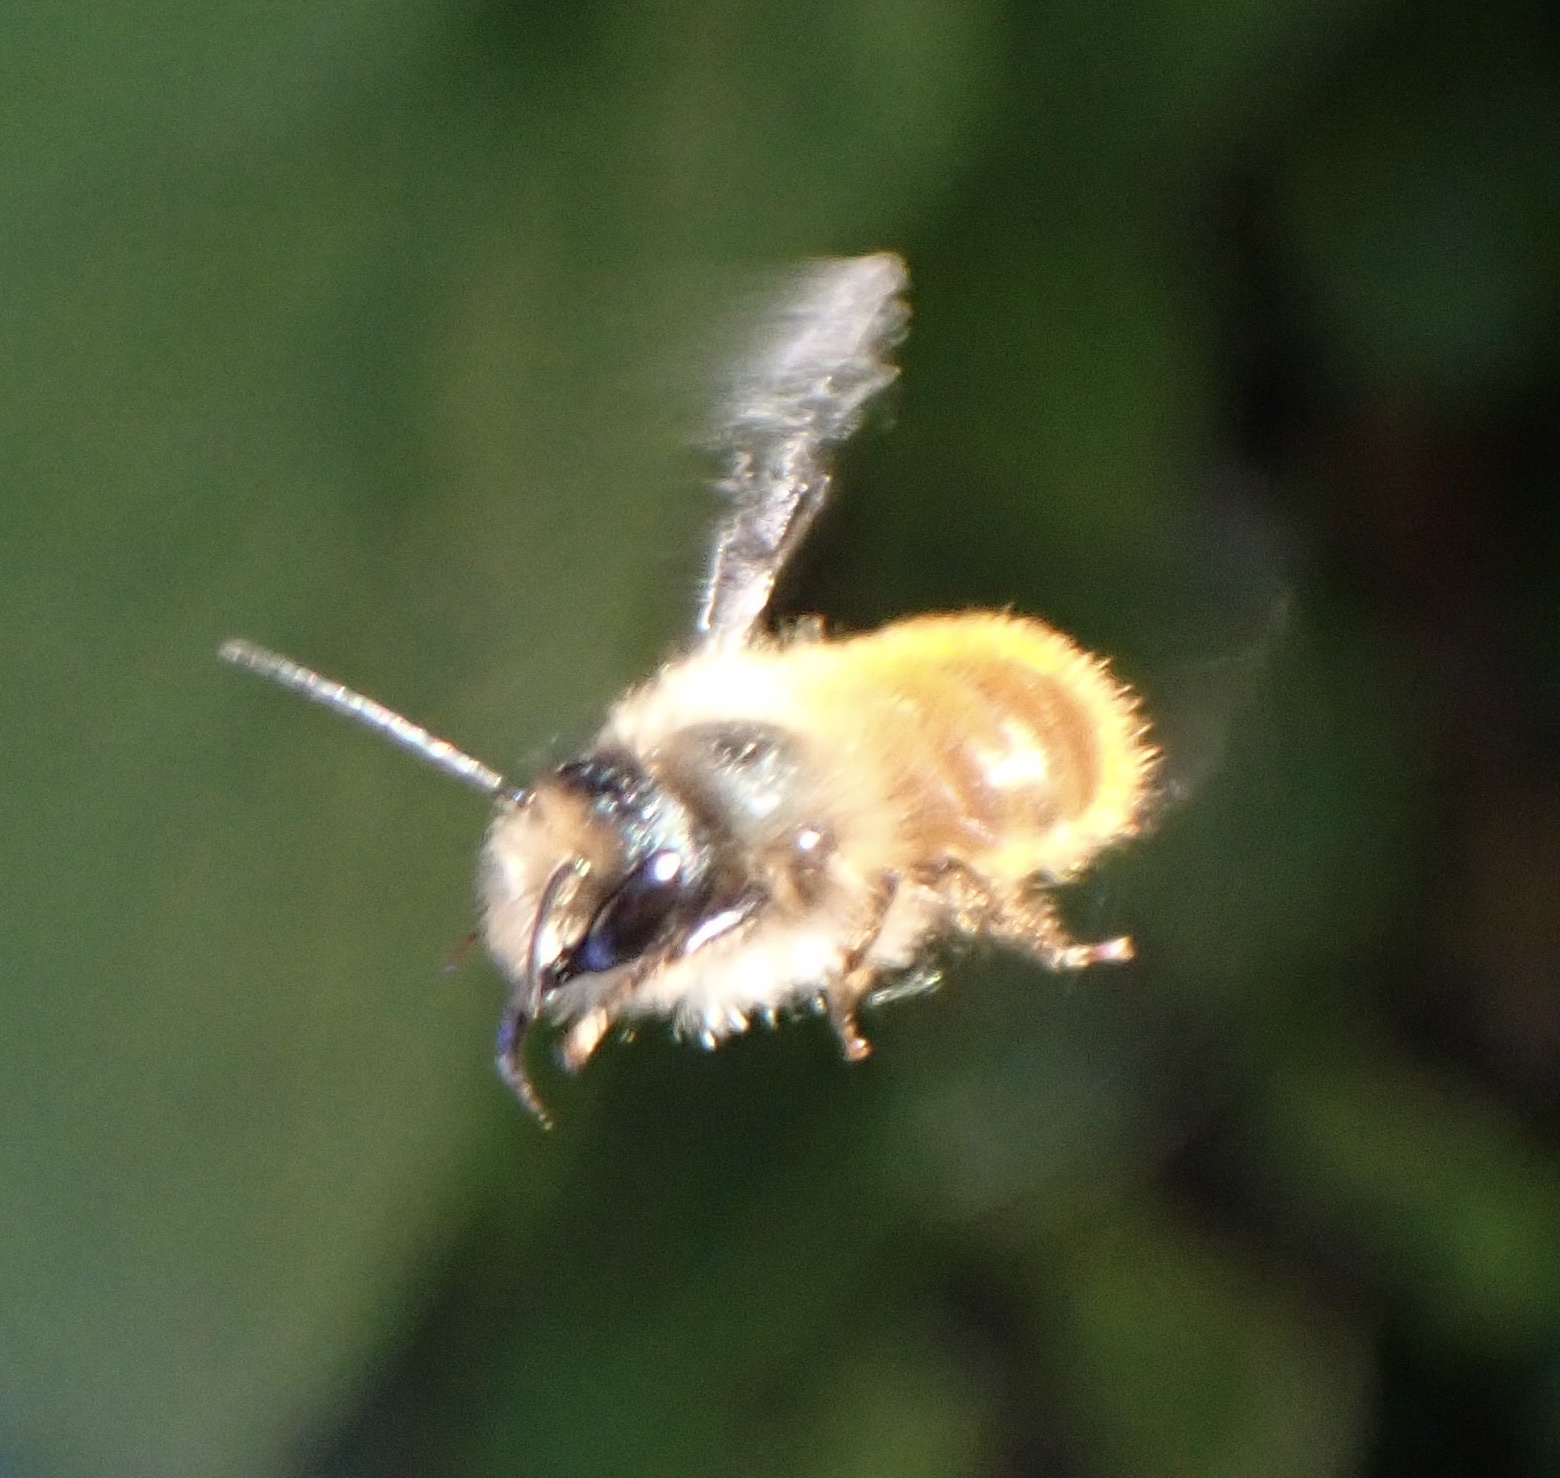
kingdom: Animalia
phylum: Arthropoda
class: Insecta
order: Hymenoptera
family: Megachilidae
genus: Osmia
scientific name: Osmia bicornis
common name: Red mason bee
